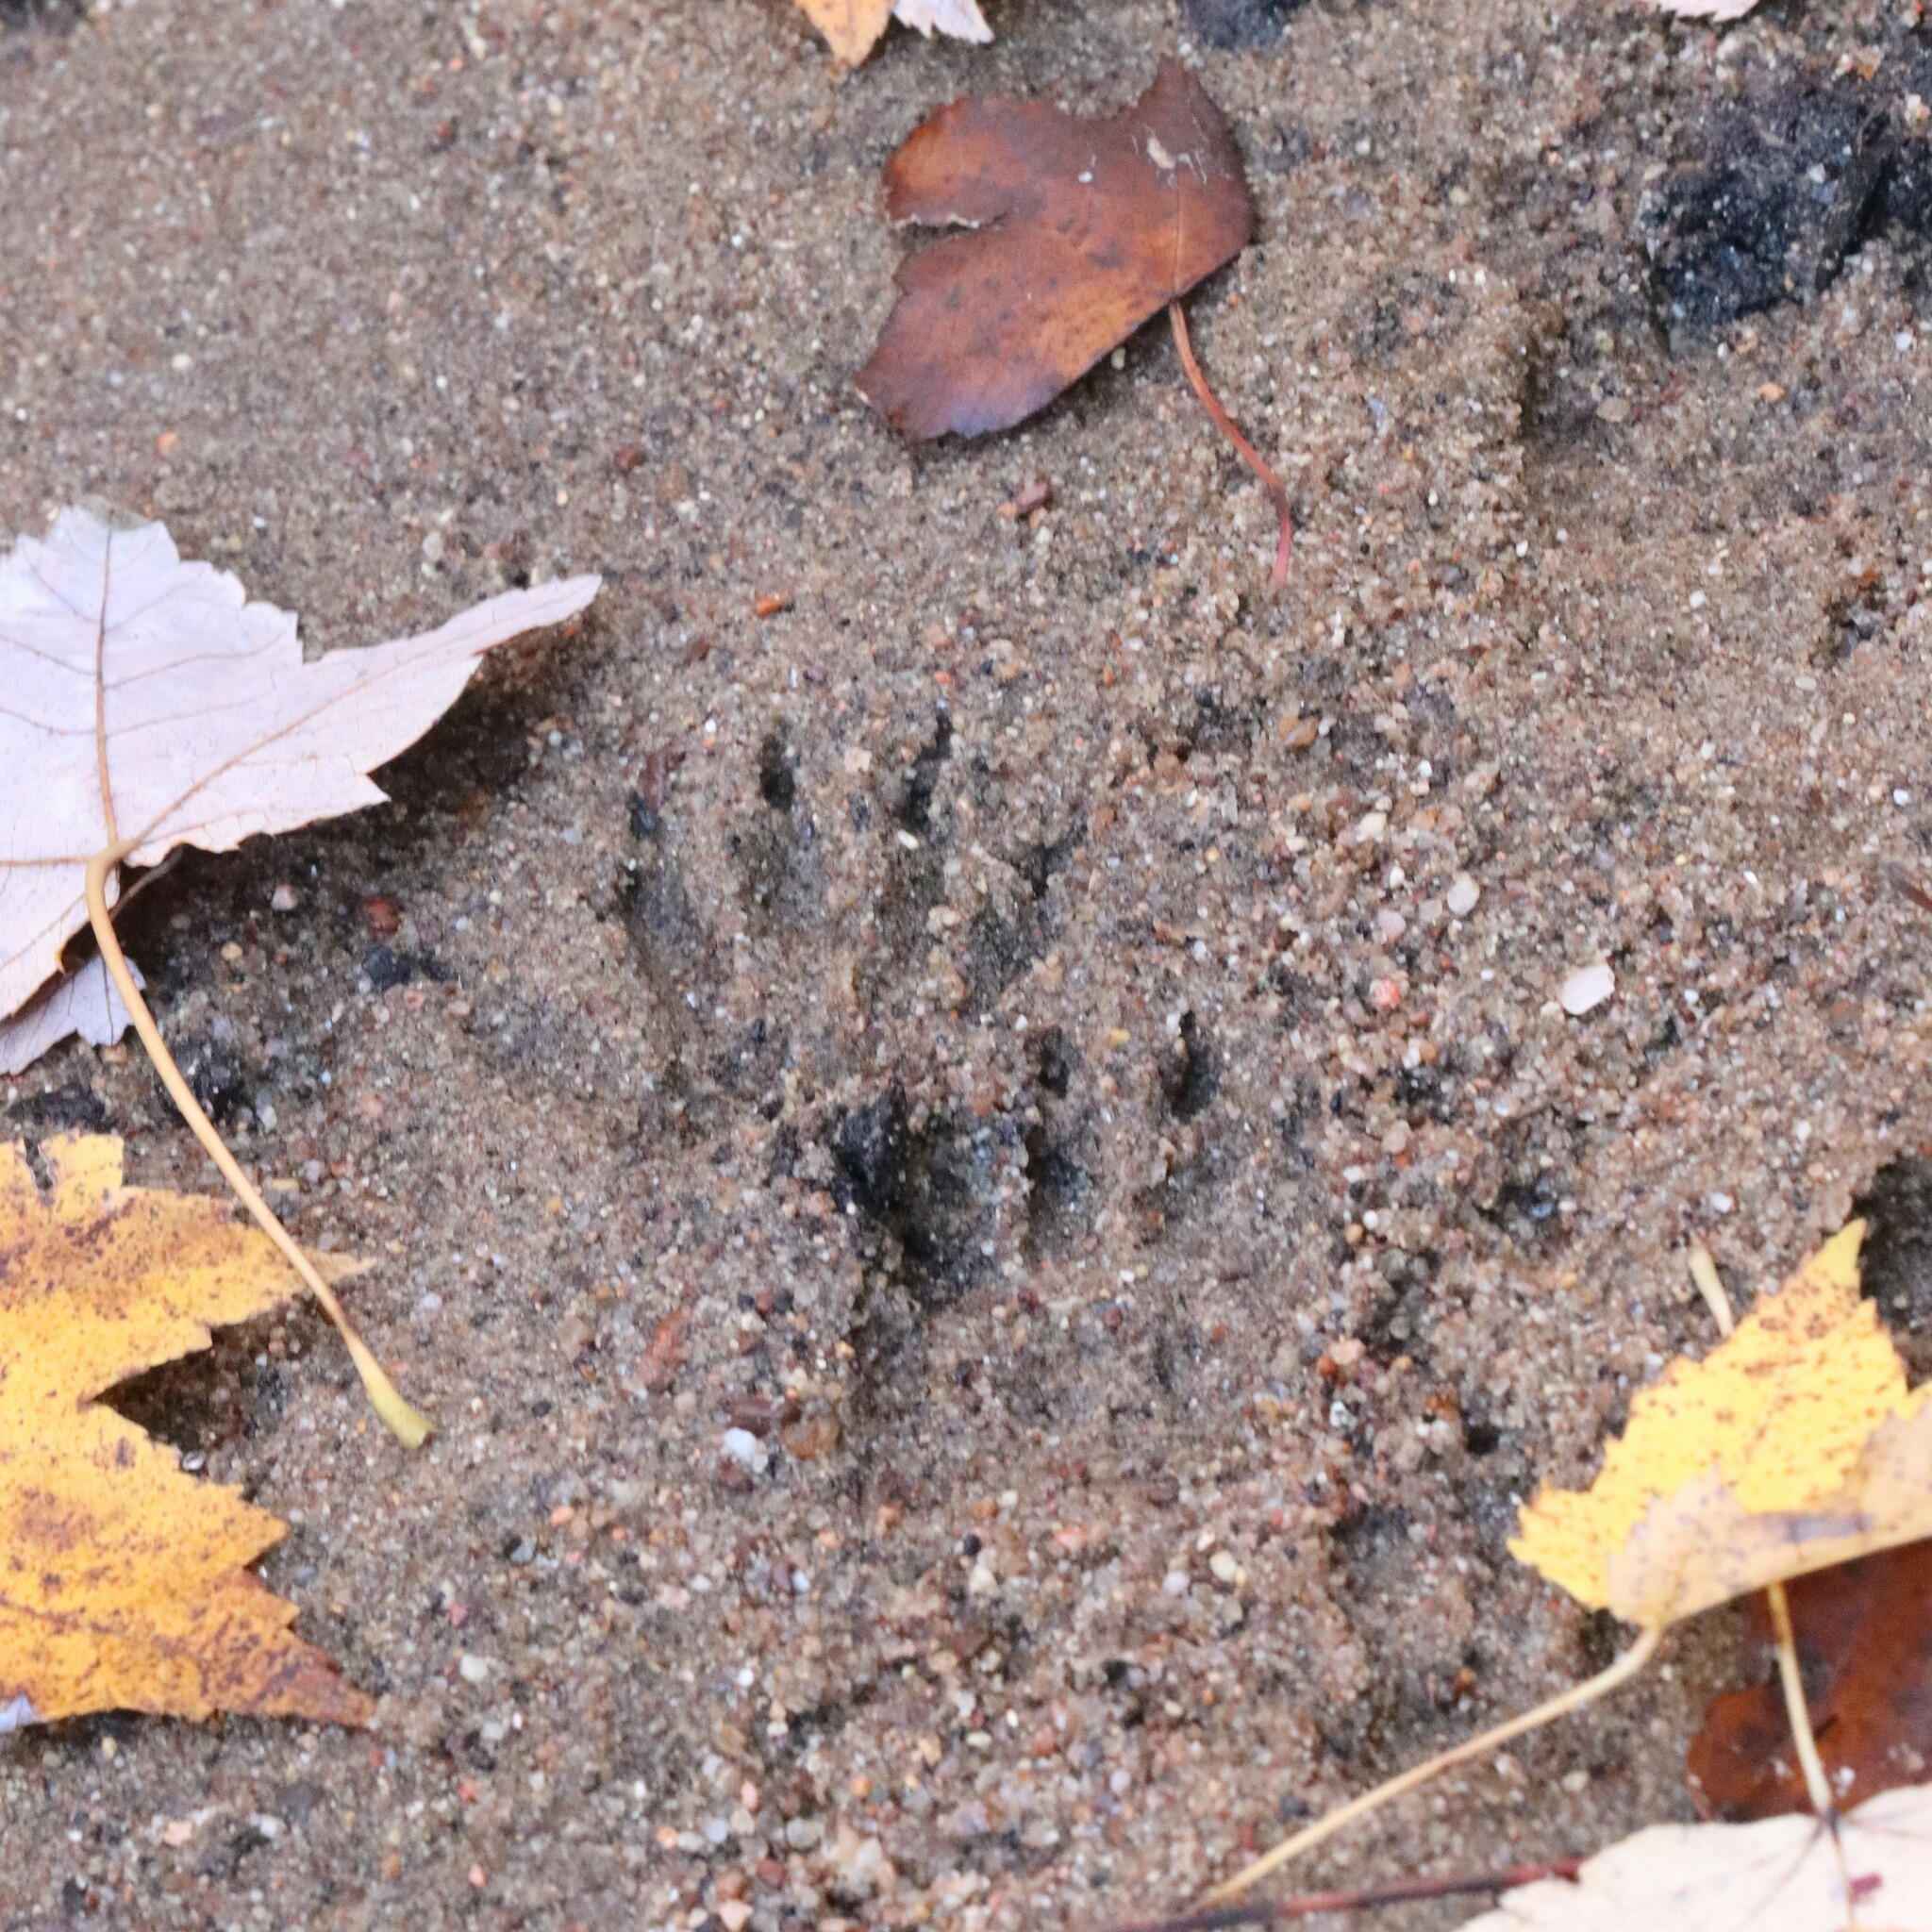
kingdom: Animalia
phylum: Chordata
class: Mammalia
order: Carnivora
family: Procyonidae
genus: Procyon
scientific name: Procyon lotor
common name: Raccoon
